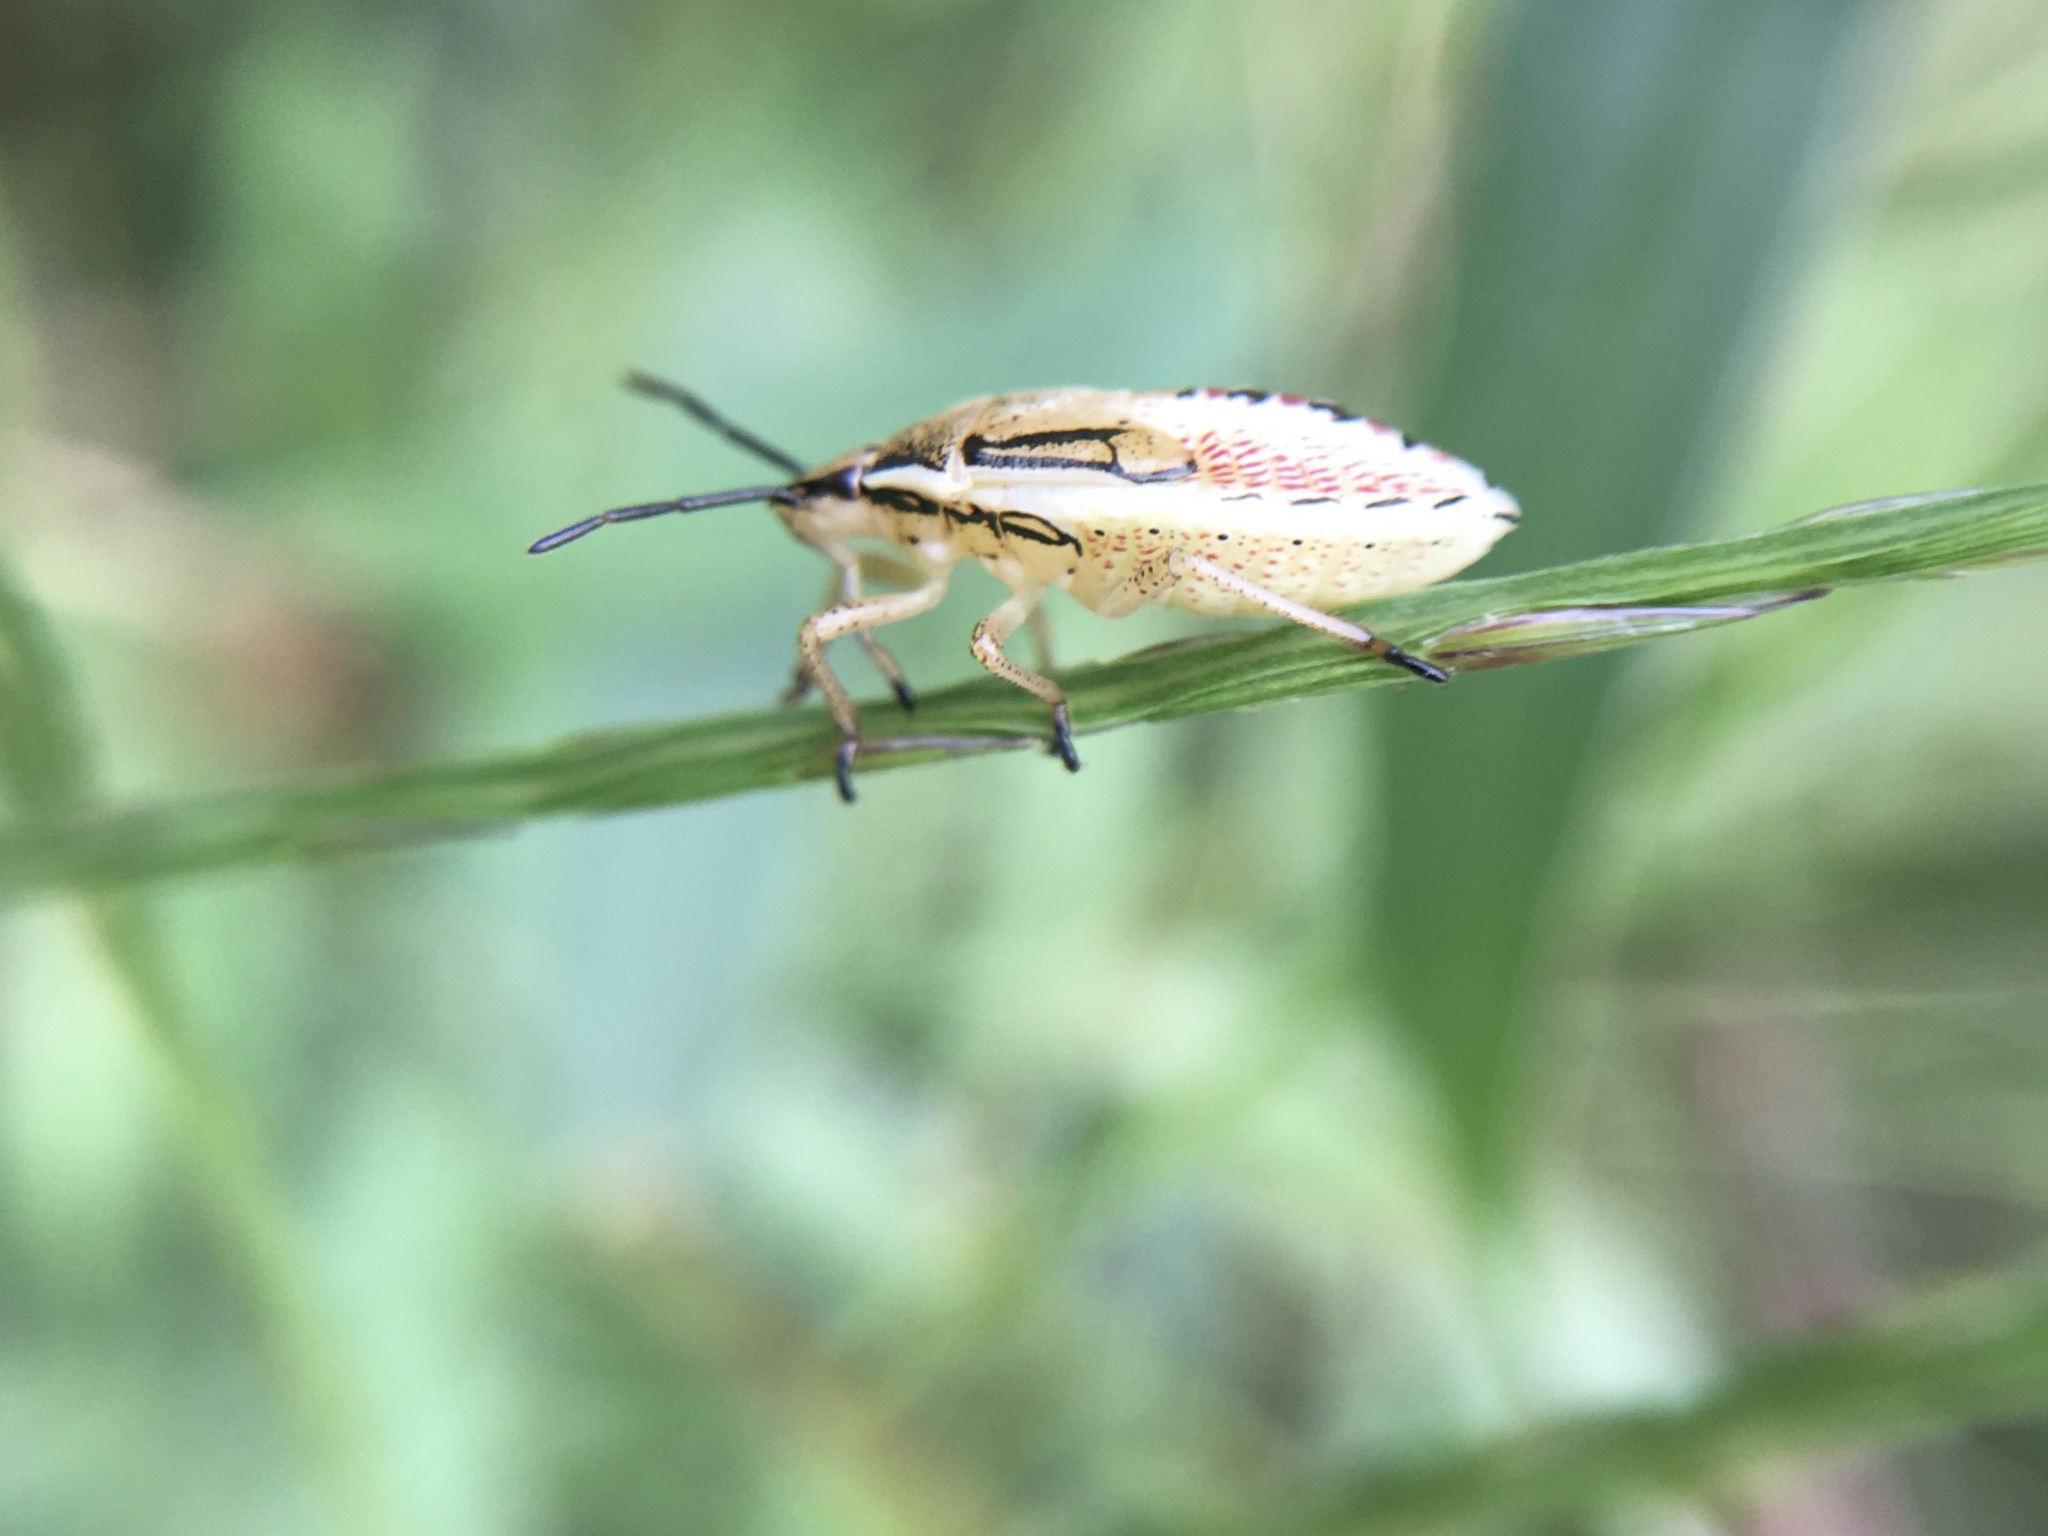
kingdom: Animalia
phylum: Arthropoda
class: Insecta
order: Hemiptera
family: Pentatomidae
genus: Oebalus
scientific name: Oebalus pugnax
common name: Rice stink bug
